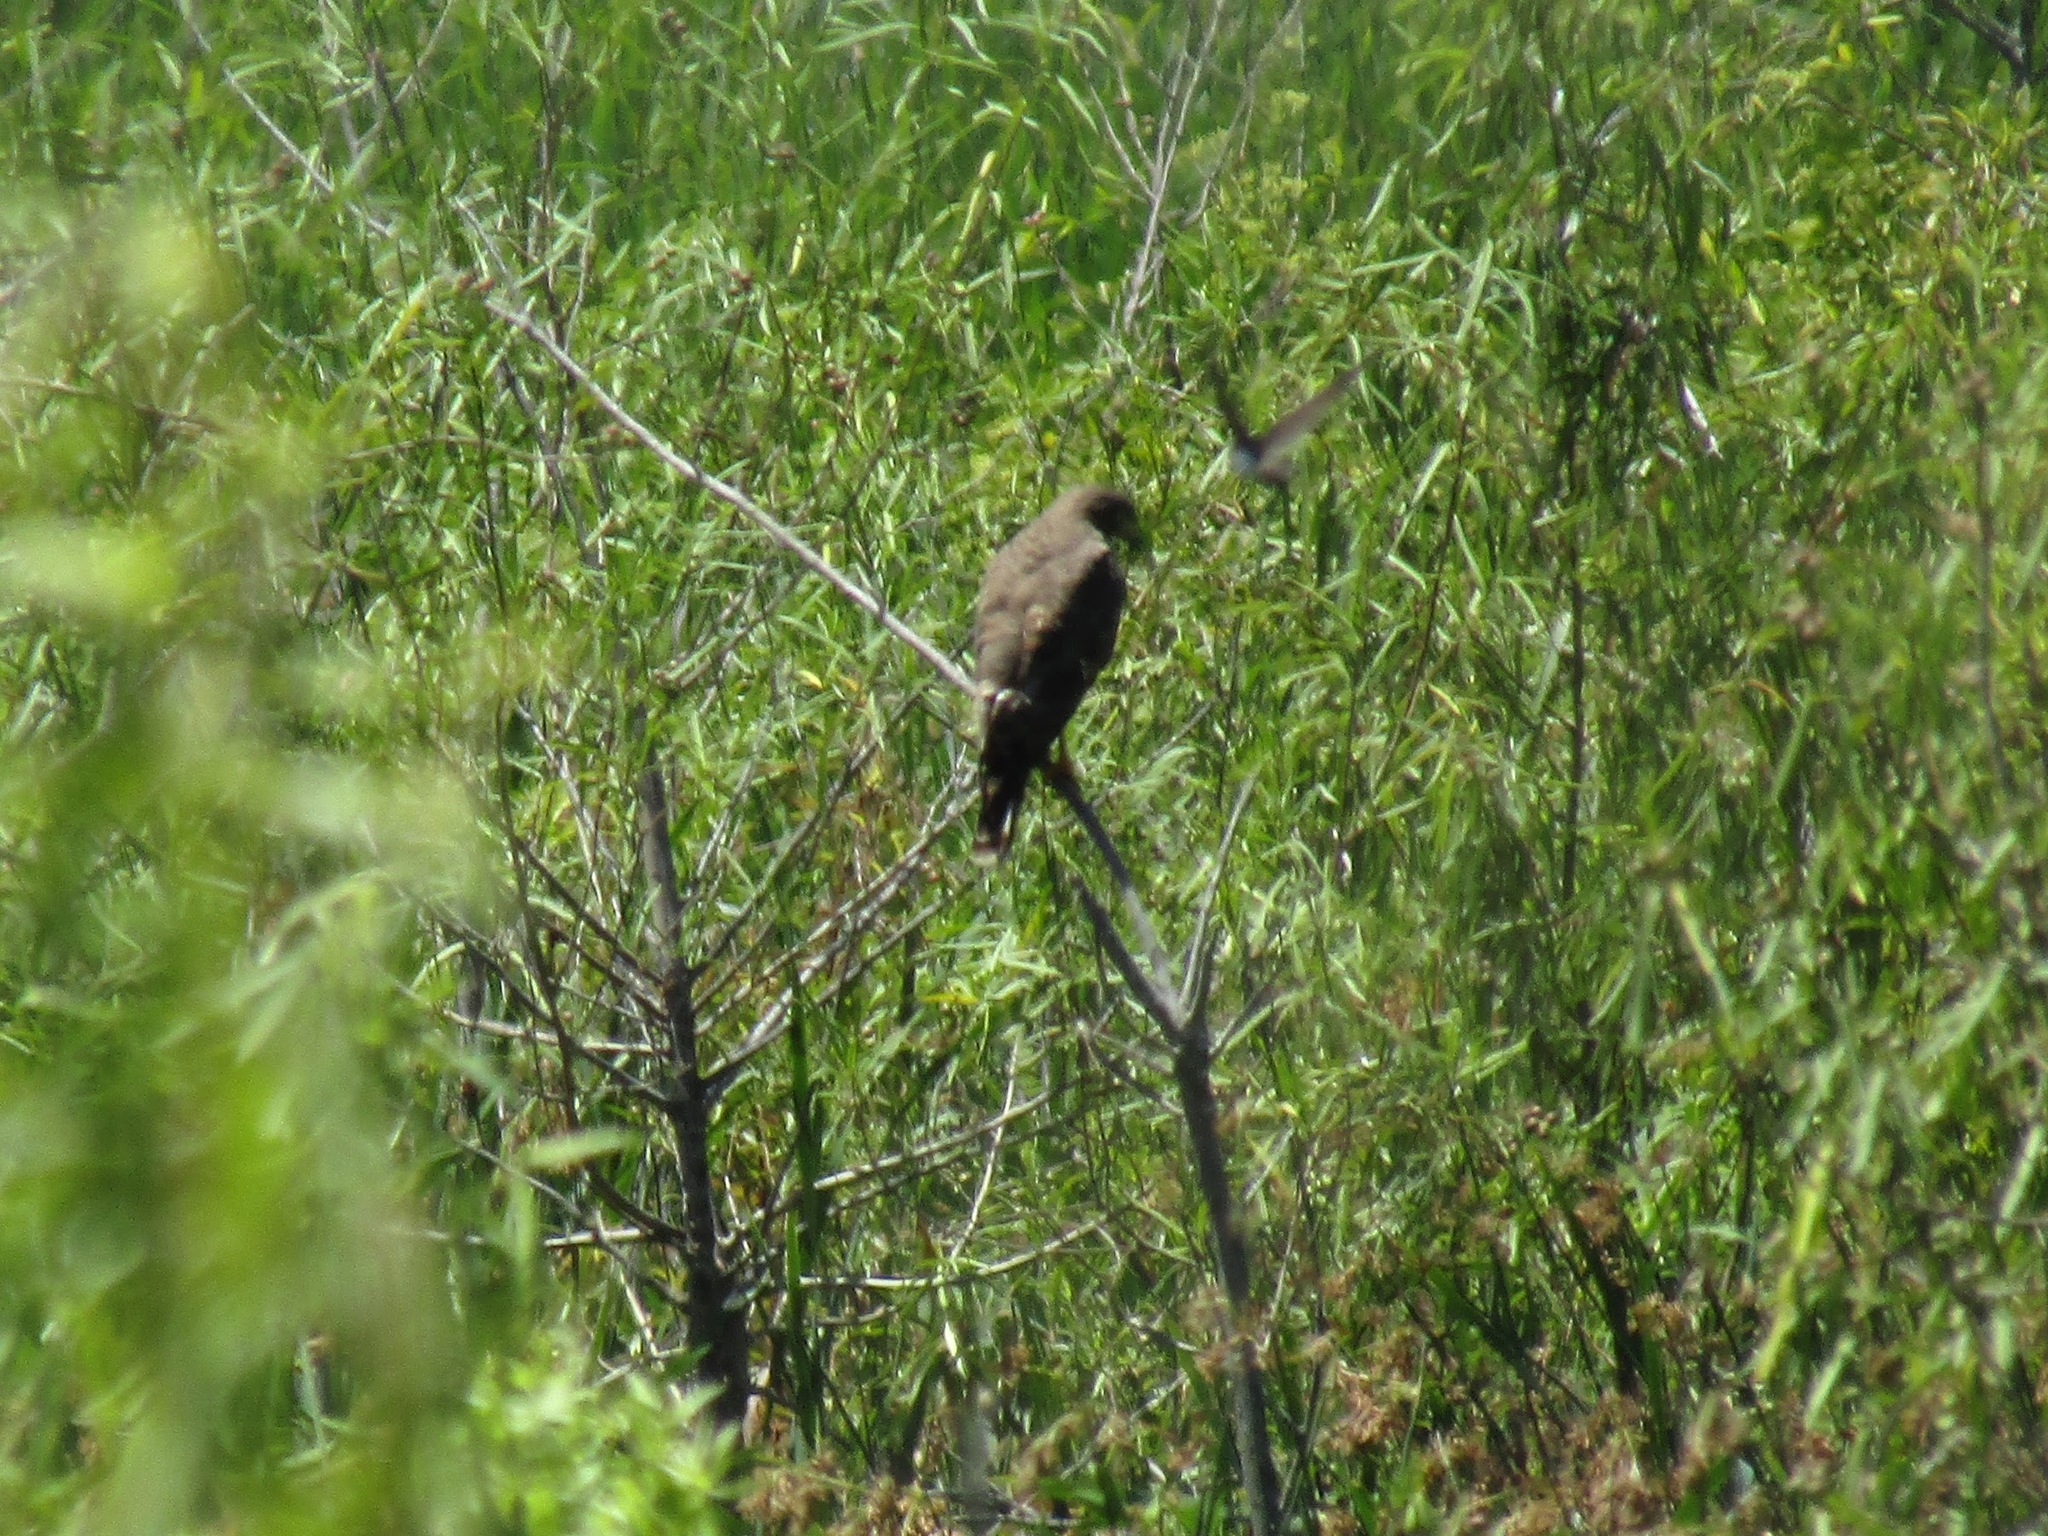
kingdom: Animalia
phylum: Chordata
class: Aves
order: Accipitriformes
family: Accipitridae
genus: Rupornis
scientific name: Rupornis magnirostris
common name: Roadside hawk
